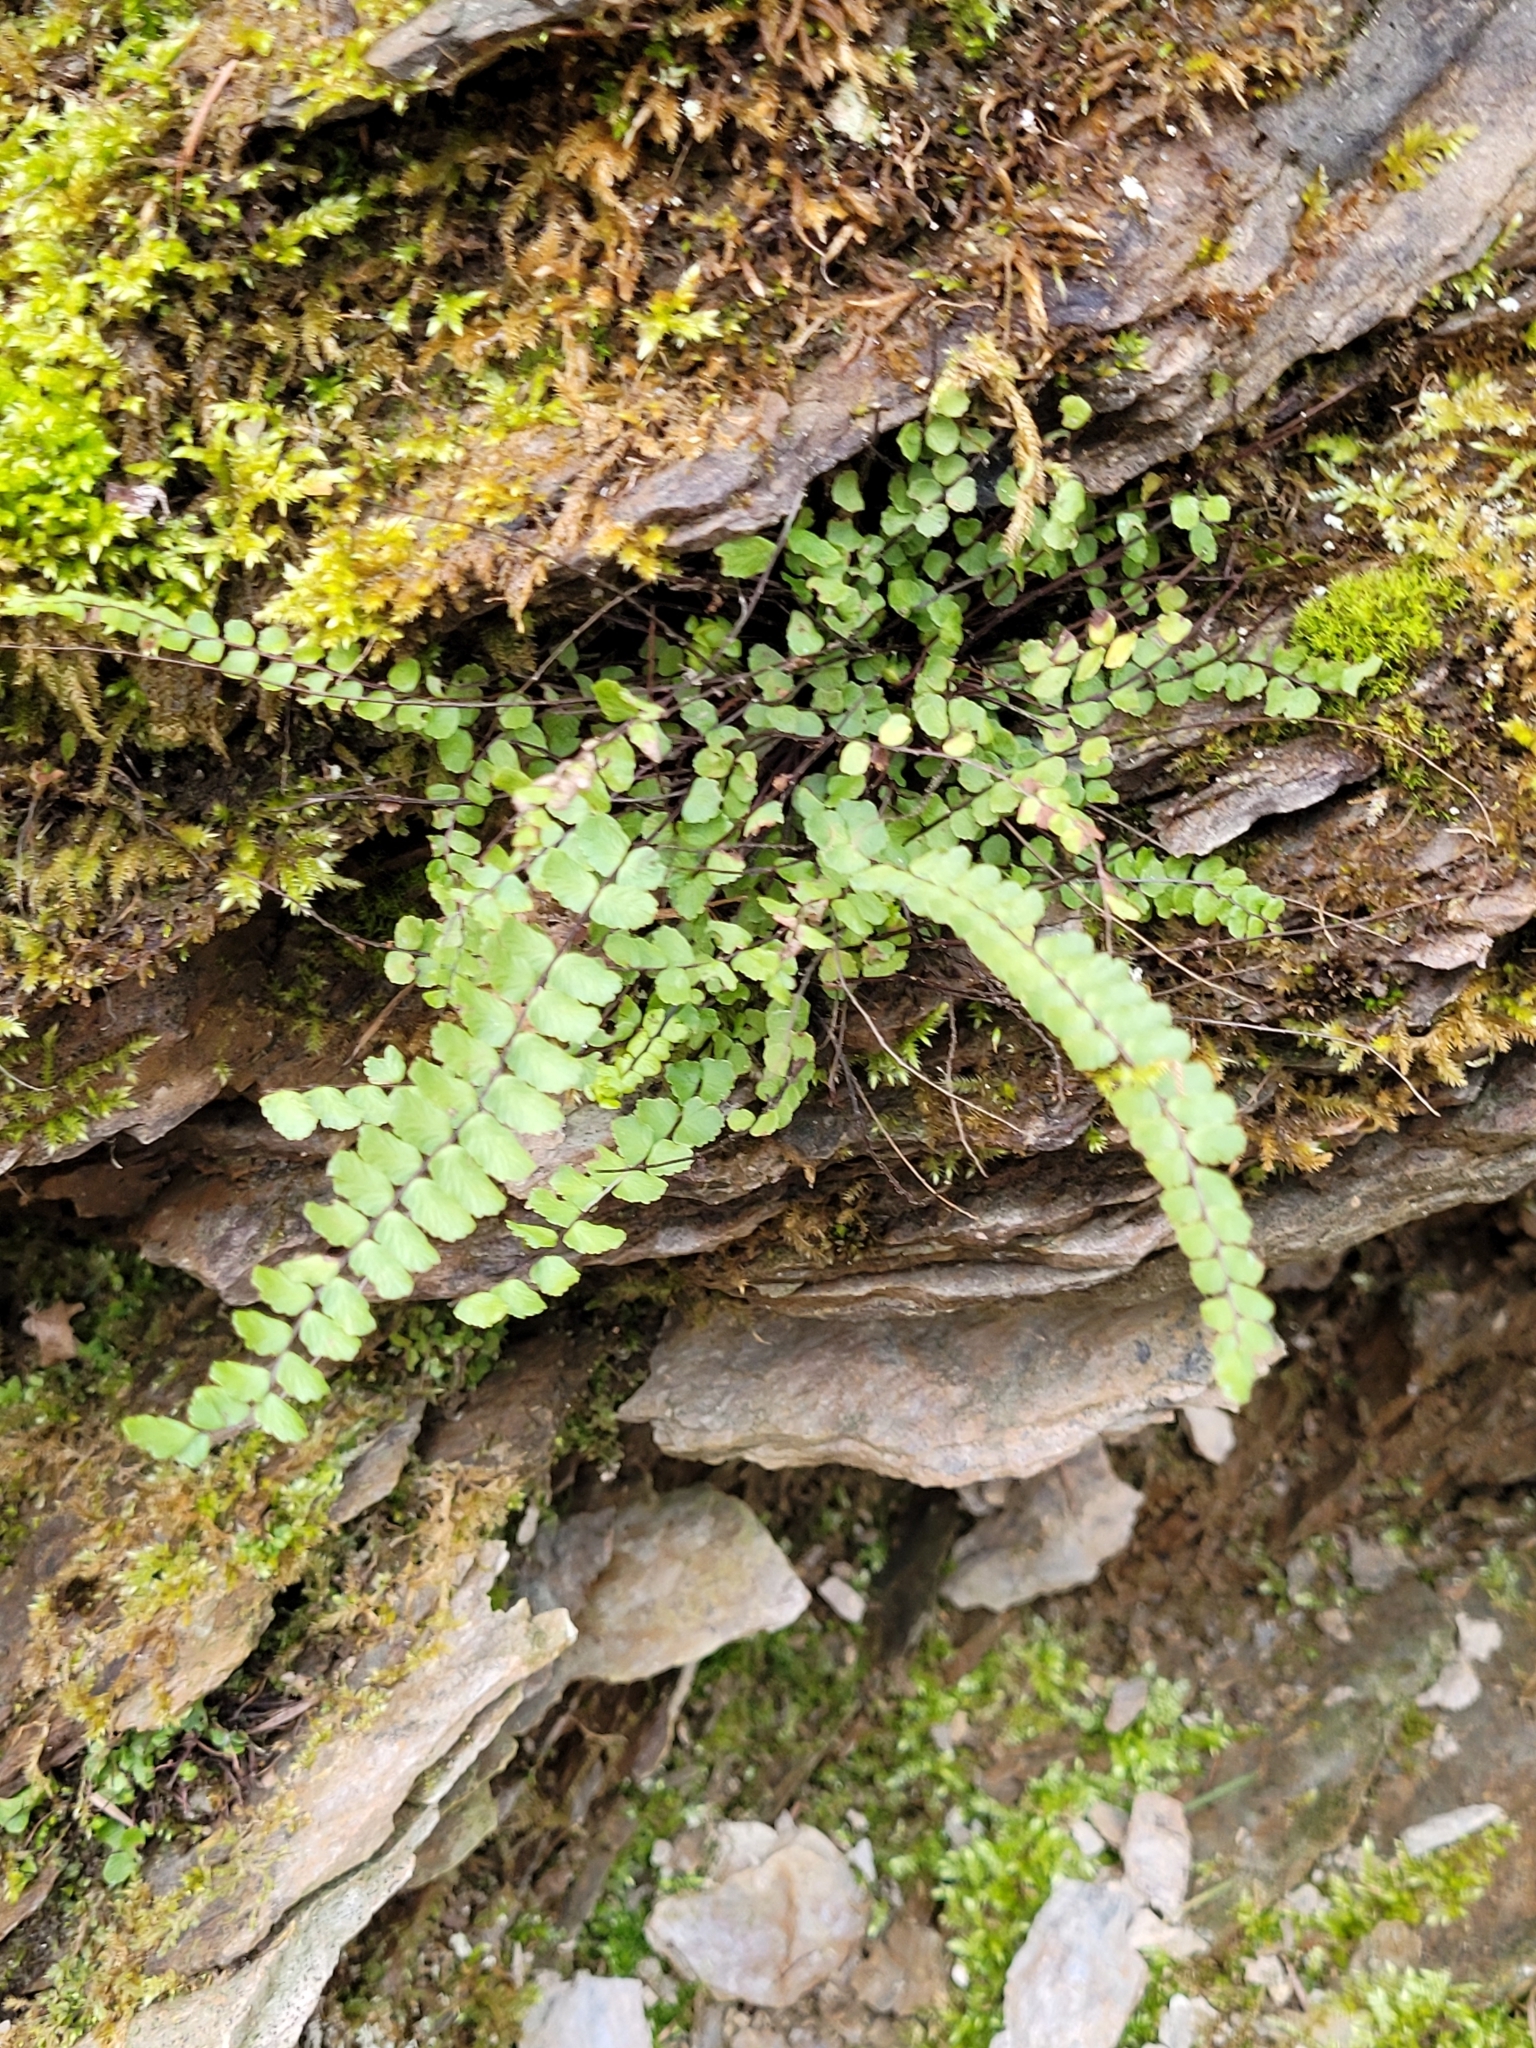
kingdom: Plantae
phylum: Tracheophyta
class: Polypodiopsida
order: Polypodiales
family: Aspleniaceae
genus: Asplenium
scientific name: Asplenium trichomanes
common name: Maidenhair spleenwort
